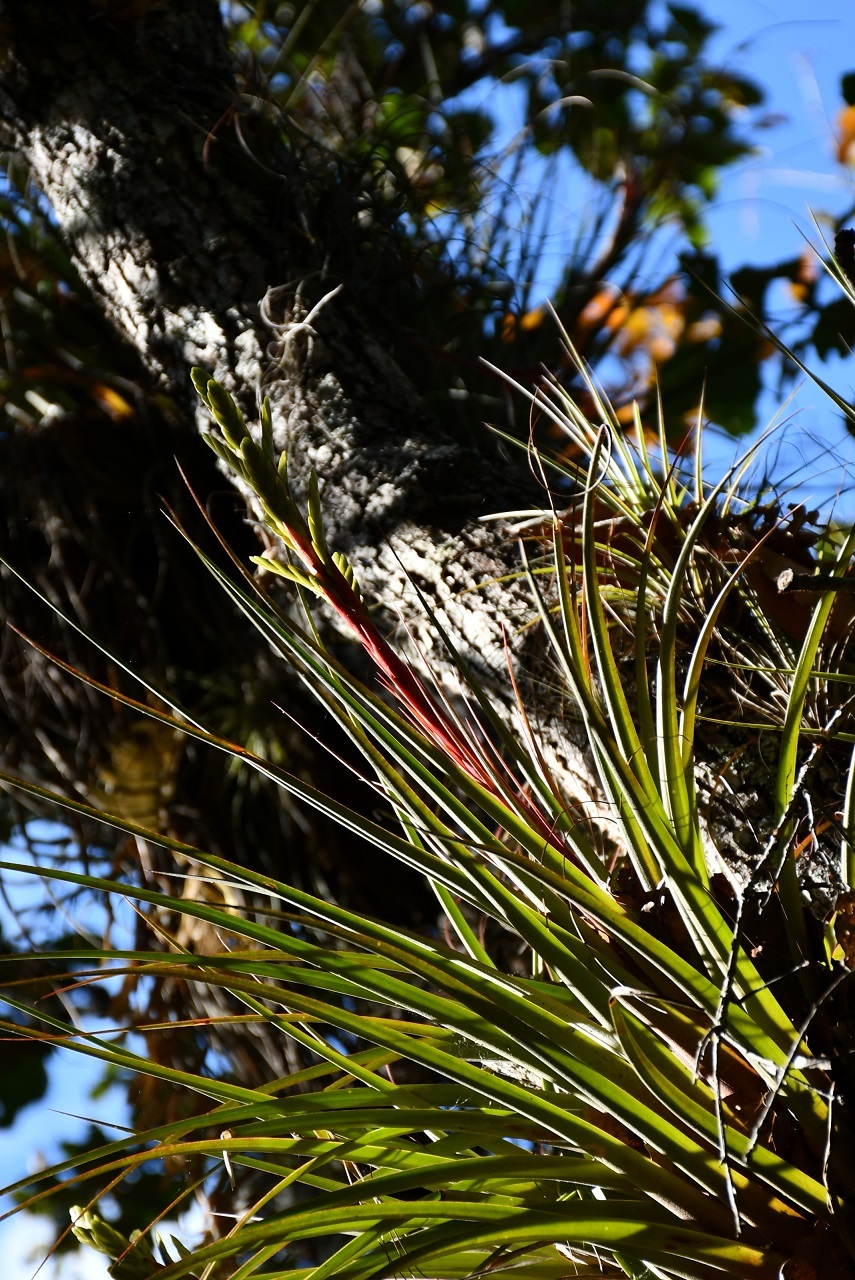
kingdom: Plantae
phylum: Tracheophyta
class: Liliopsida
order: Poales
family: Bromeliaceae
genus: Tillandsia
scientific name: Tillandsia rodrigueziana
